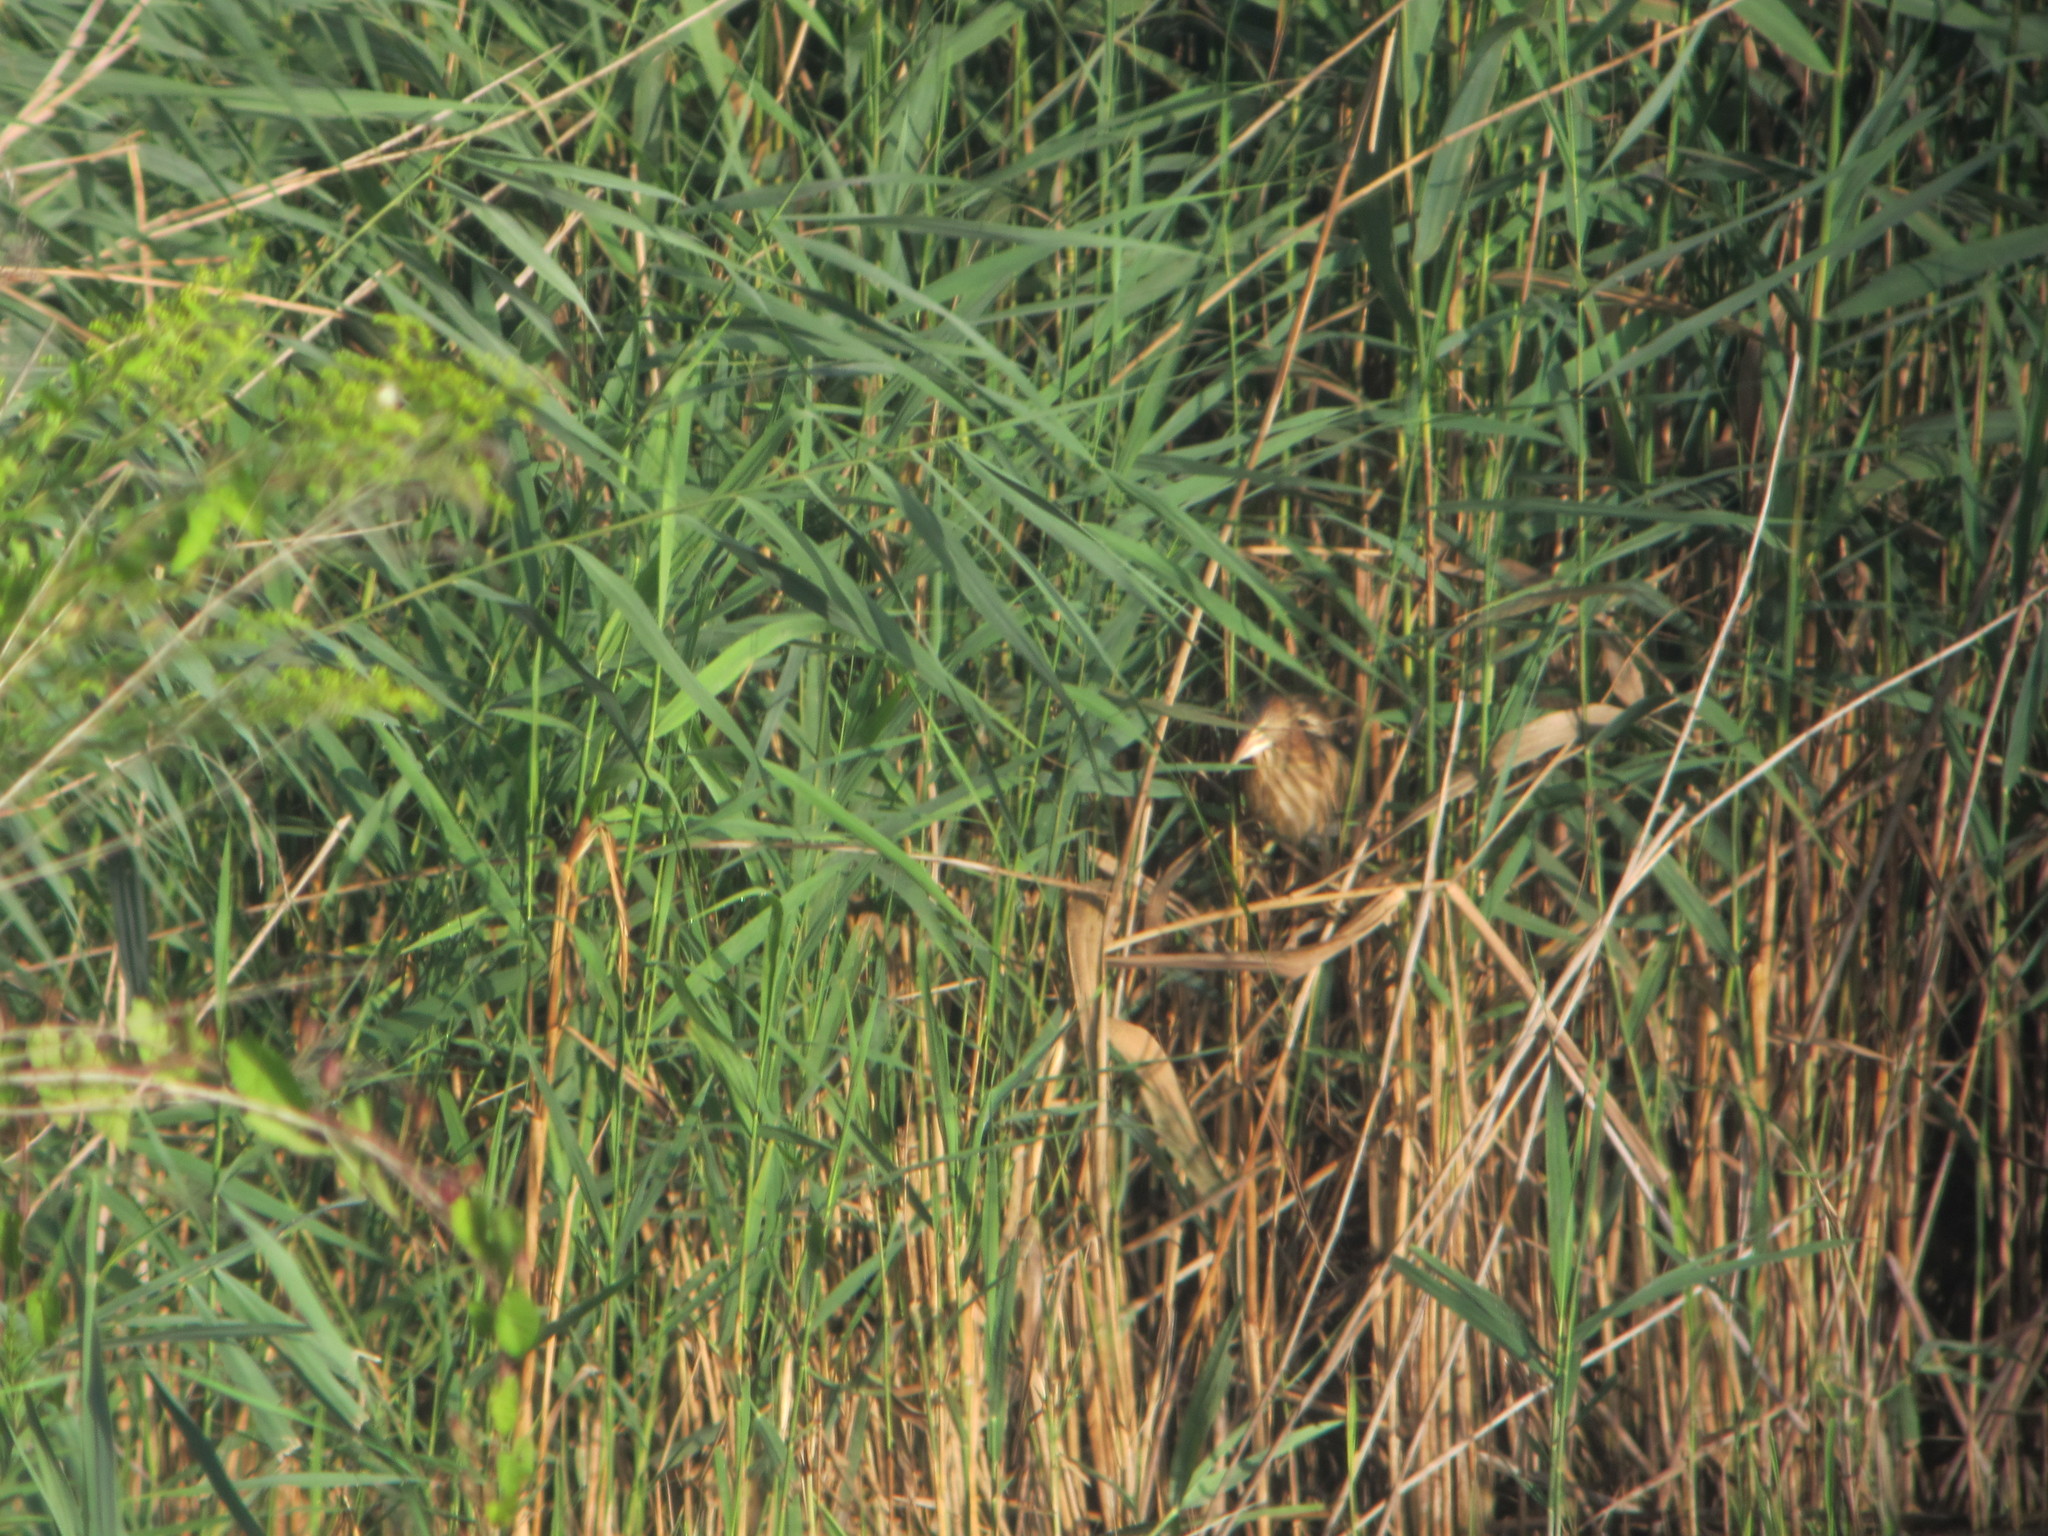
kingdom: Animalia
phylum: Chordata
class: Aves
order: Pelecaniformes
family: Ardeidae
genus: Ixobrychus
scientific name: Ixobrychus minutus
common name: Little bittern
